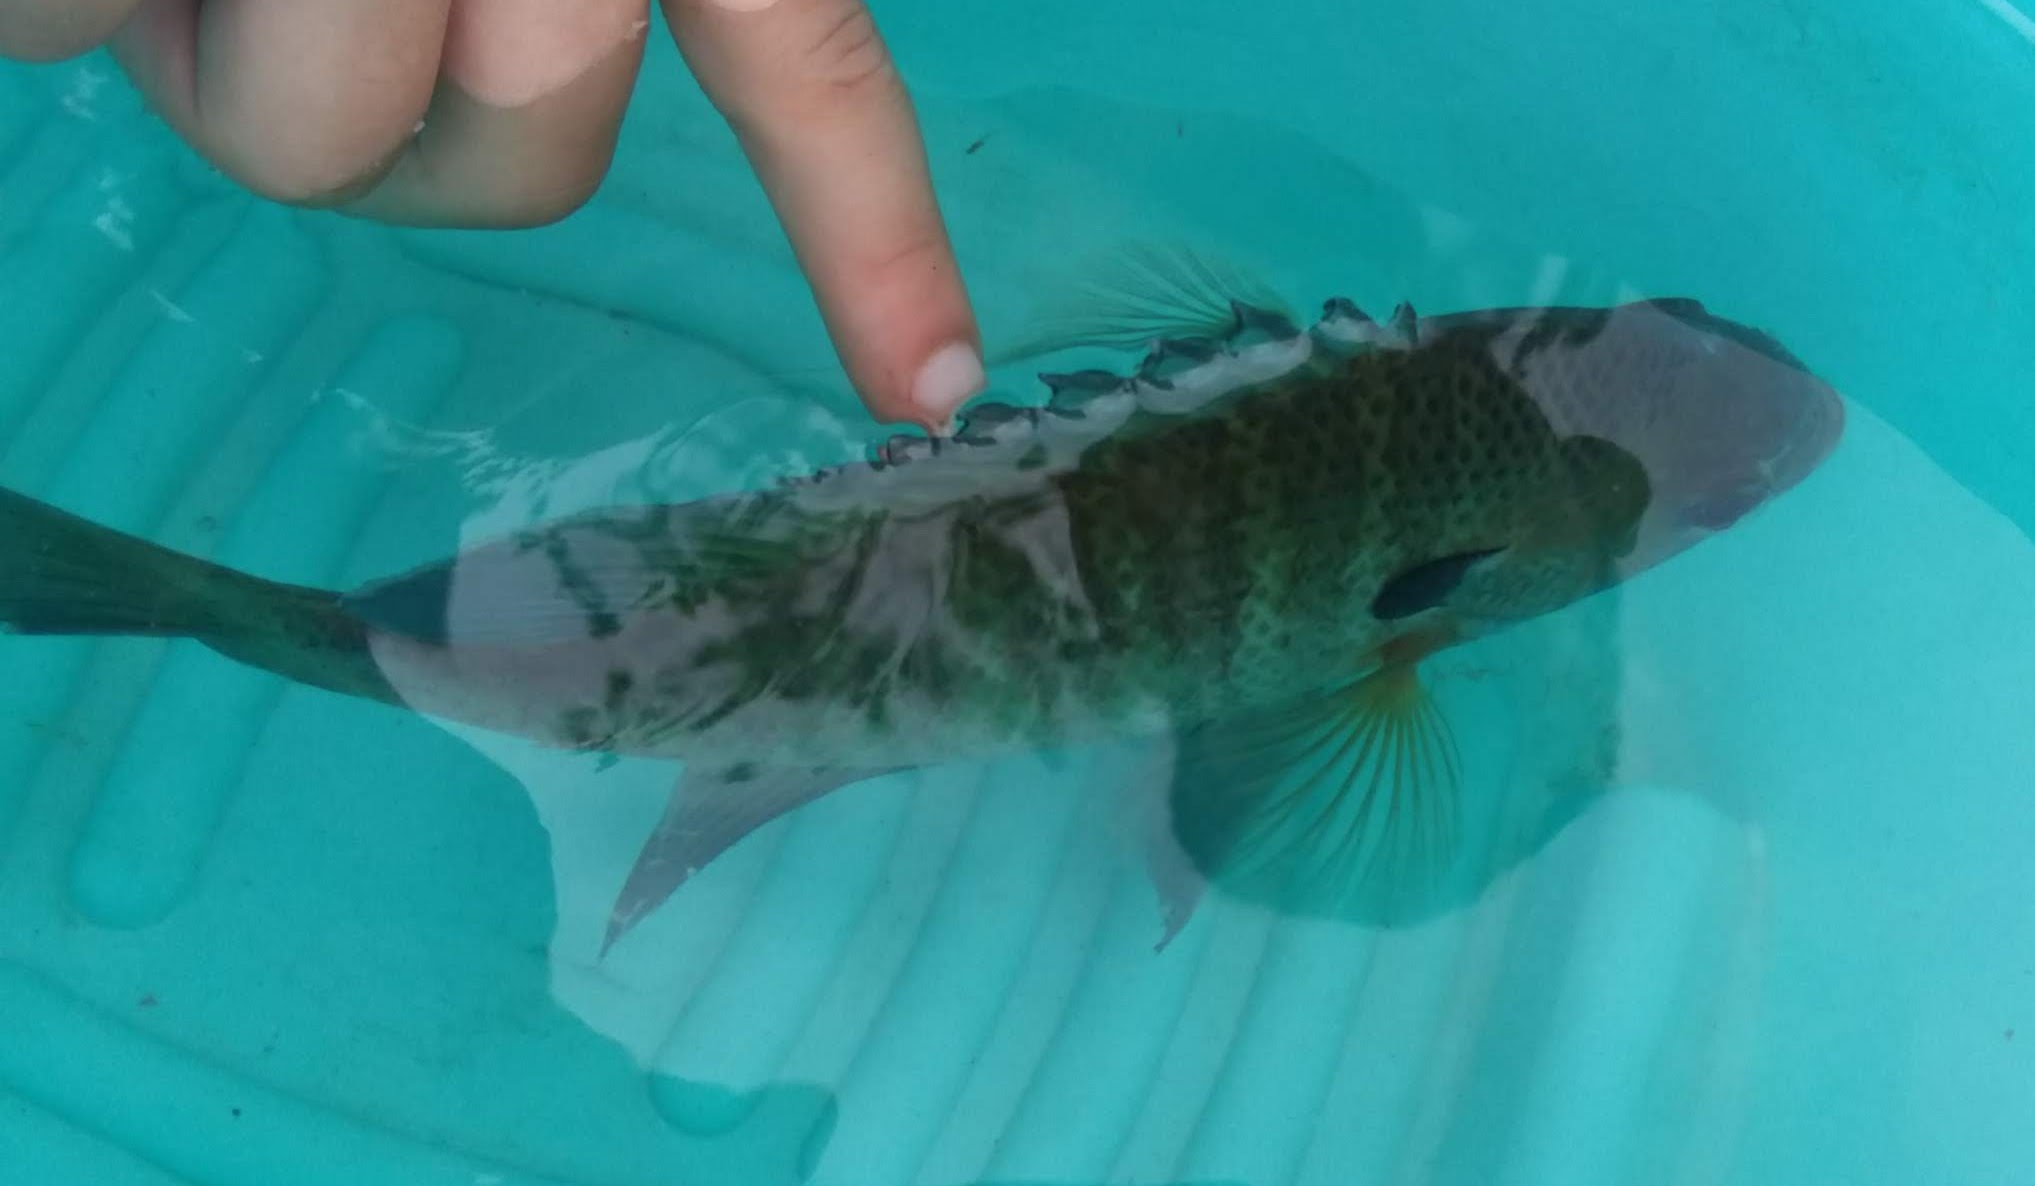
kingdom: Animalia
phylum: Chordata
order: Perciformes
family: Centrarchidae
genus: Lepomis
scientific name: Lepomis macrochirus
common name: Bluegill
